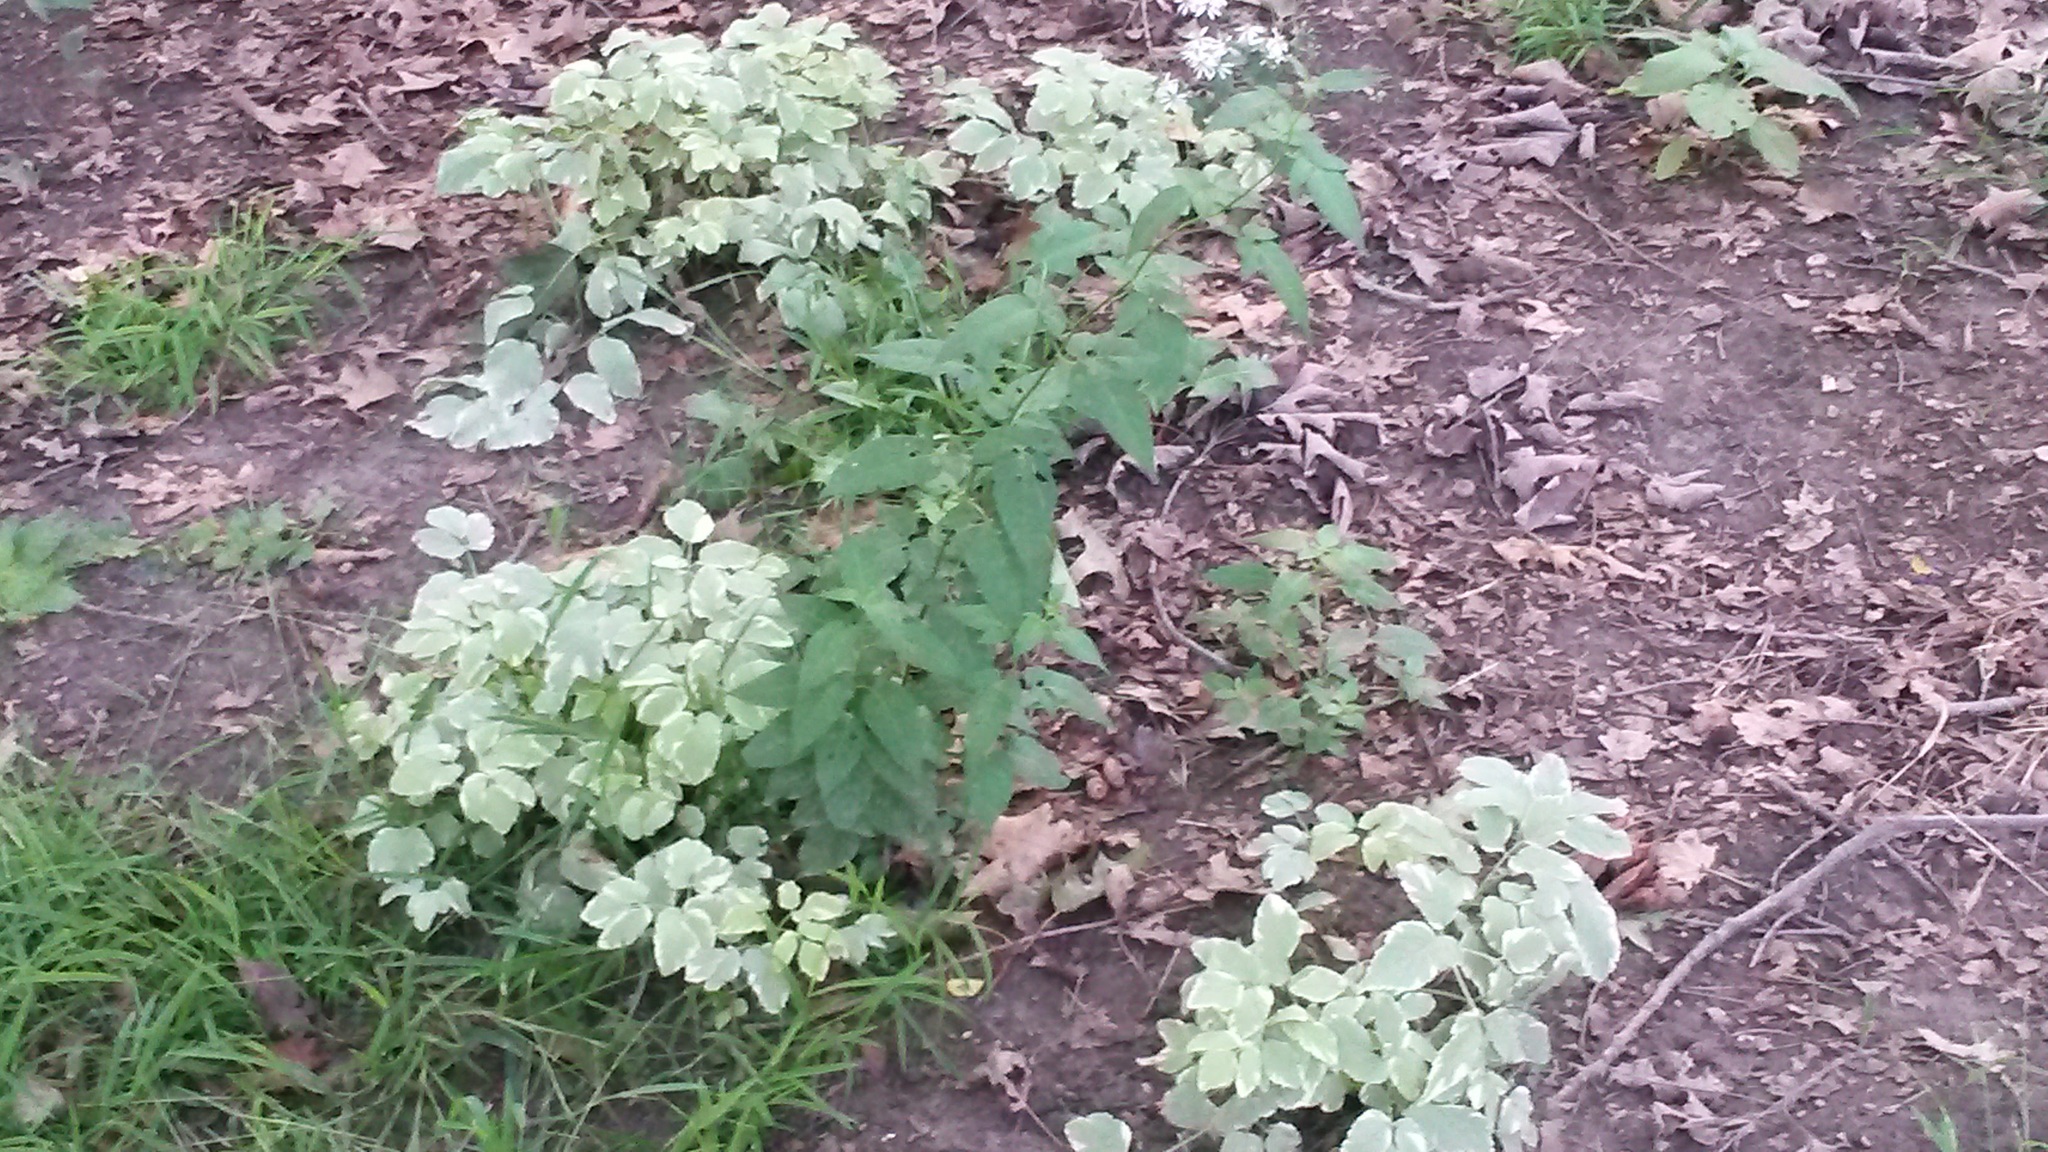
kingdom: Plantae
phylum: Tracheophyta
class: Magnoliopsida
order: Apiales
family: Apiaceae
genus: Aegopodium
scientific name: Aegopodium podagraria
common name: Ground-elder
